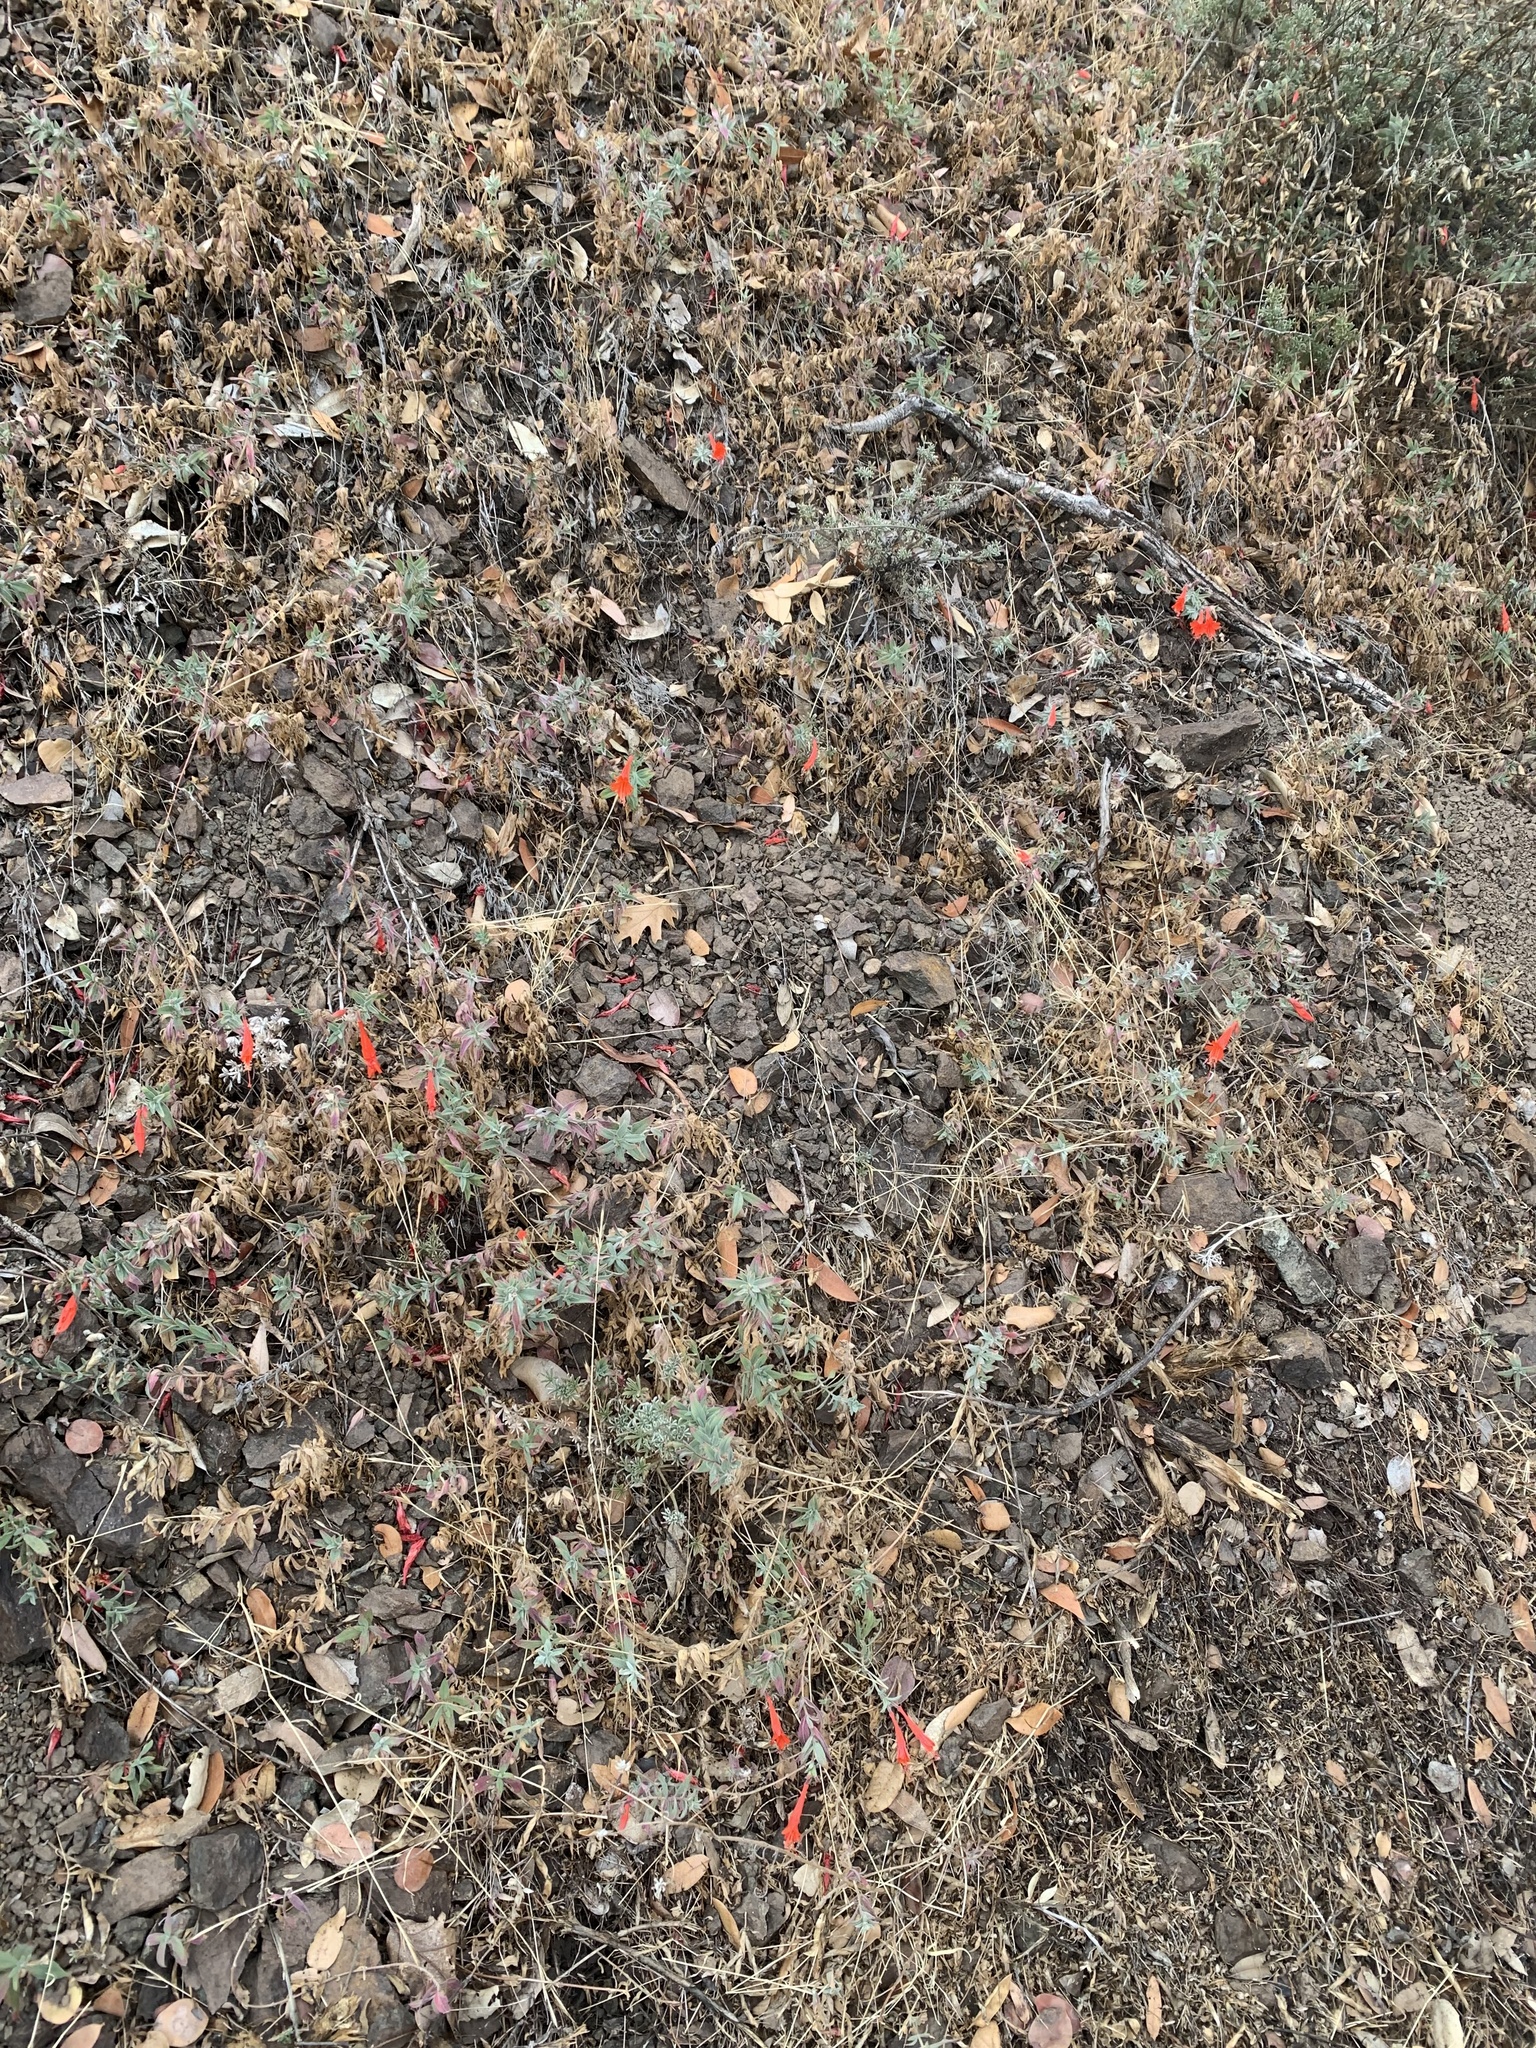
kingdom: Plantae
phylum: Tracheophyta
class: Magnoliopsida
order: Myrtales
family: Onagraceae
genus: Epilobium
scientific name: Epilobium canum
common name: California-fuchsia
